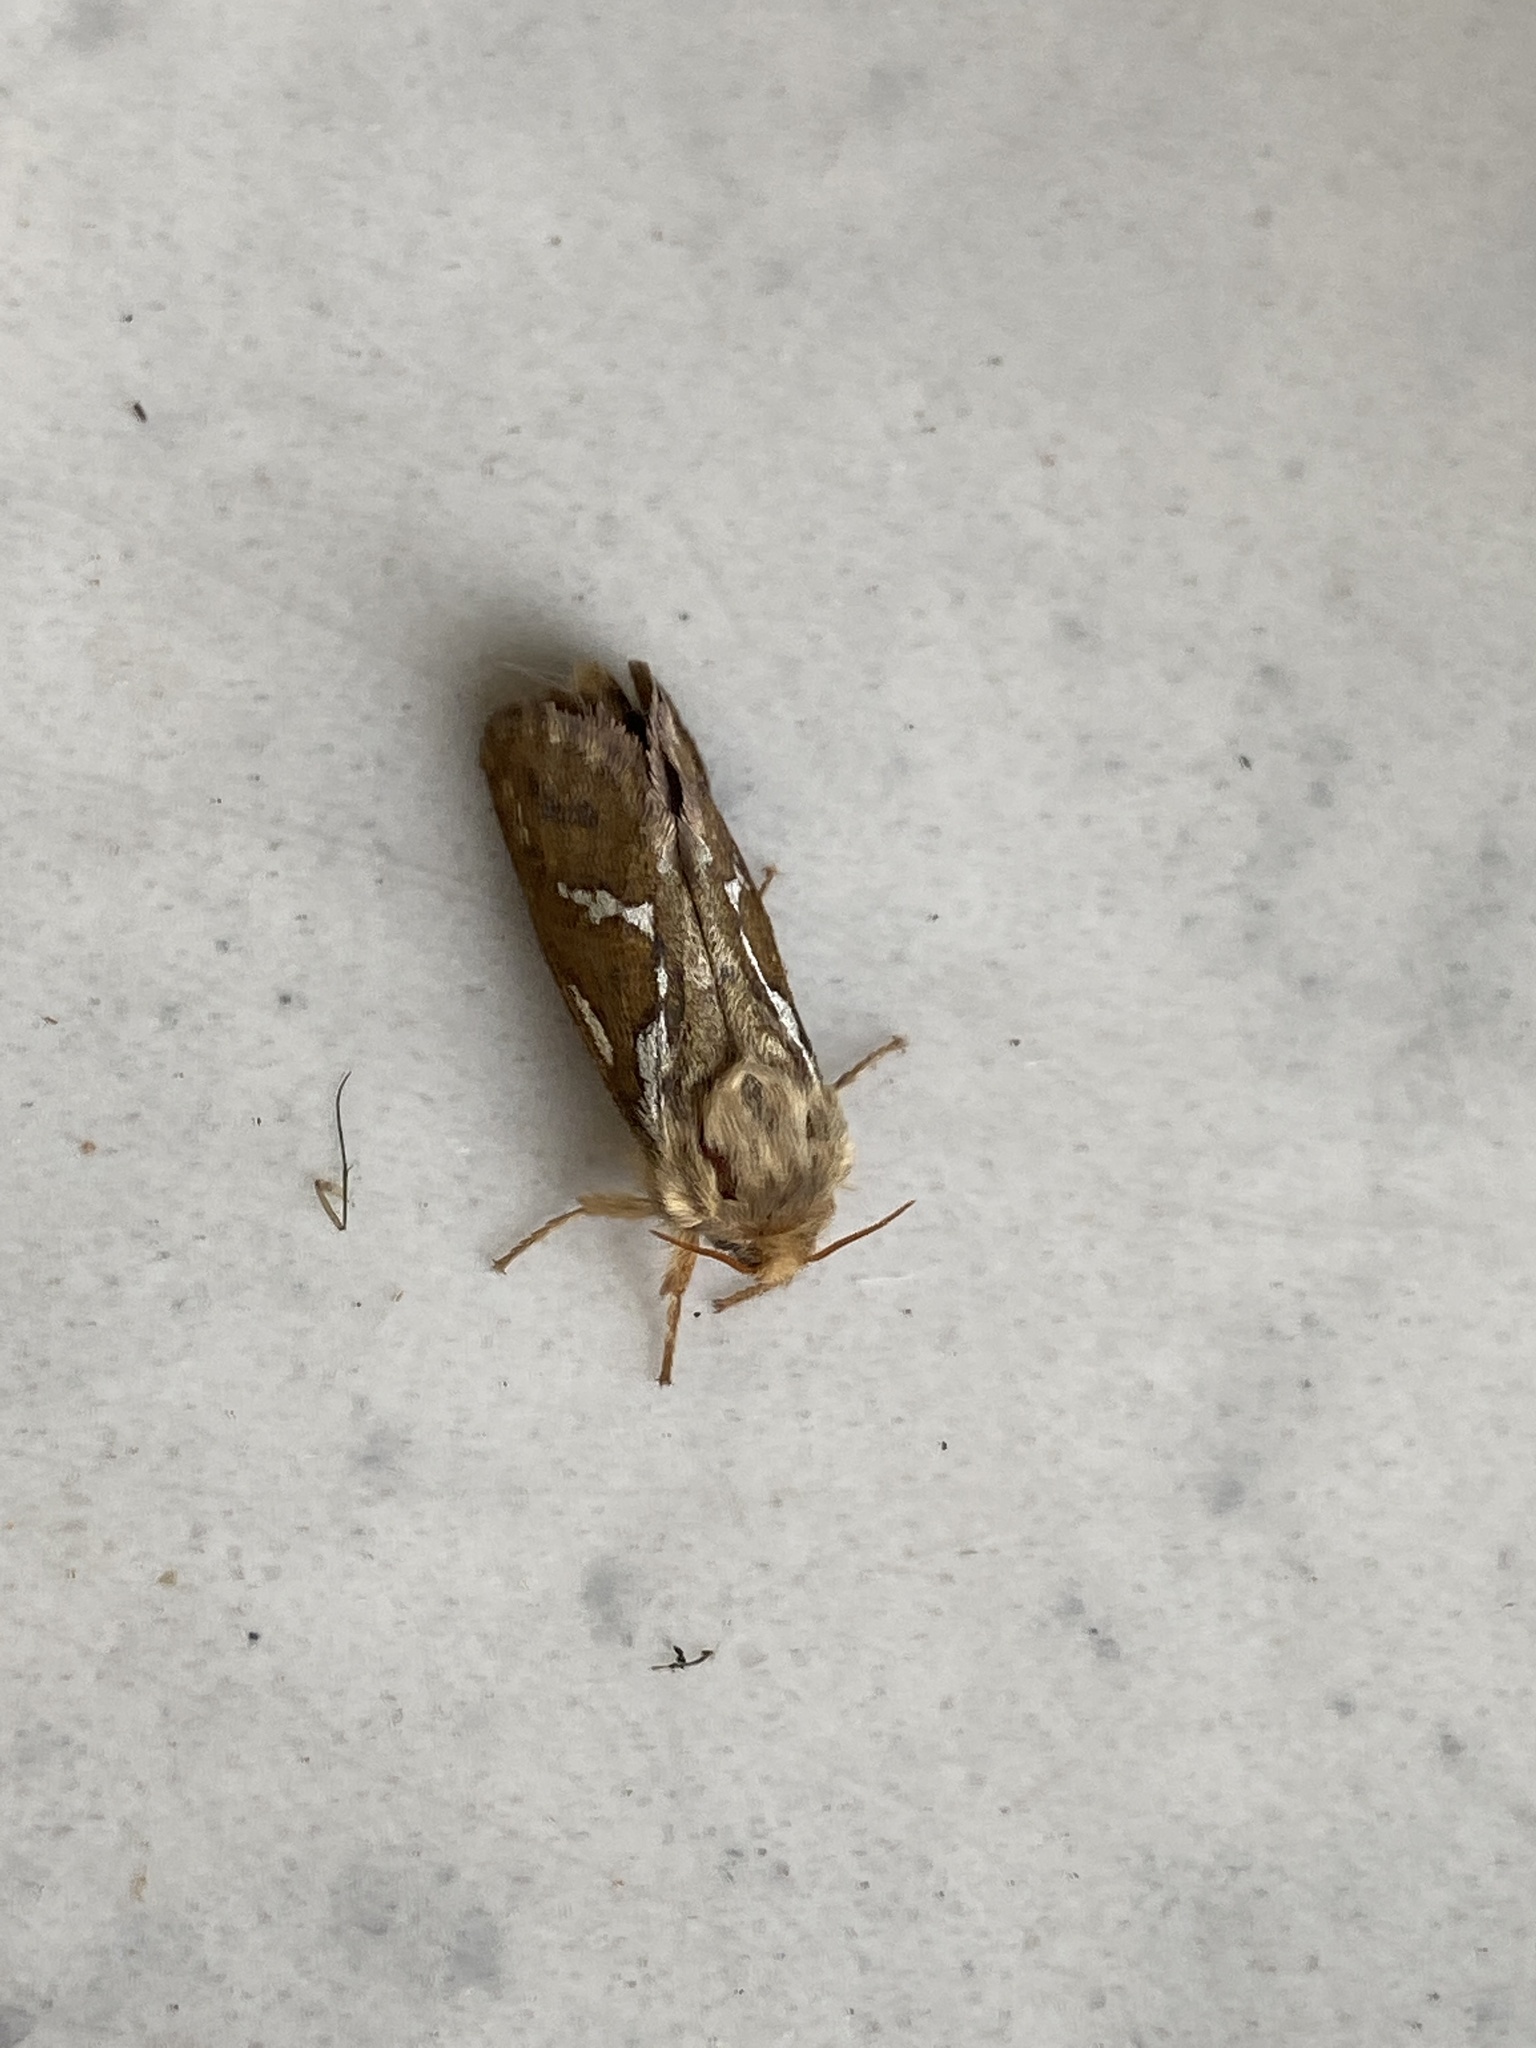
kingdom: Animalia
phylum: Arthropoda
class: Insecta
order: Lepidoptera
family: Hepialidae
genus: Korscheltellus
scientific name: Korscheltellus lupulina
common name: Common swift
